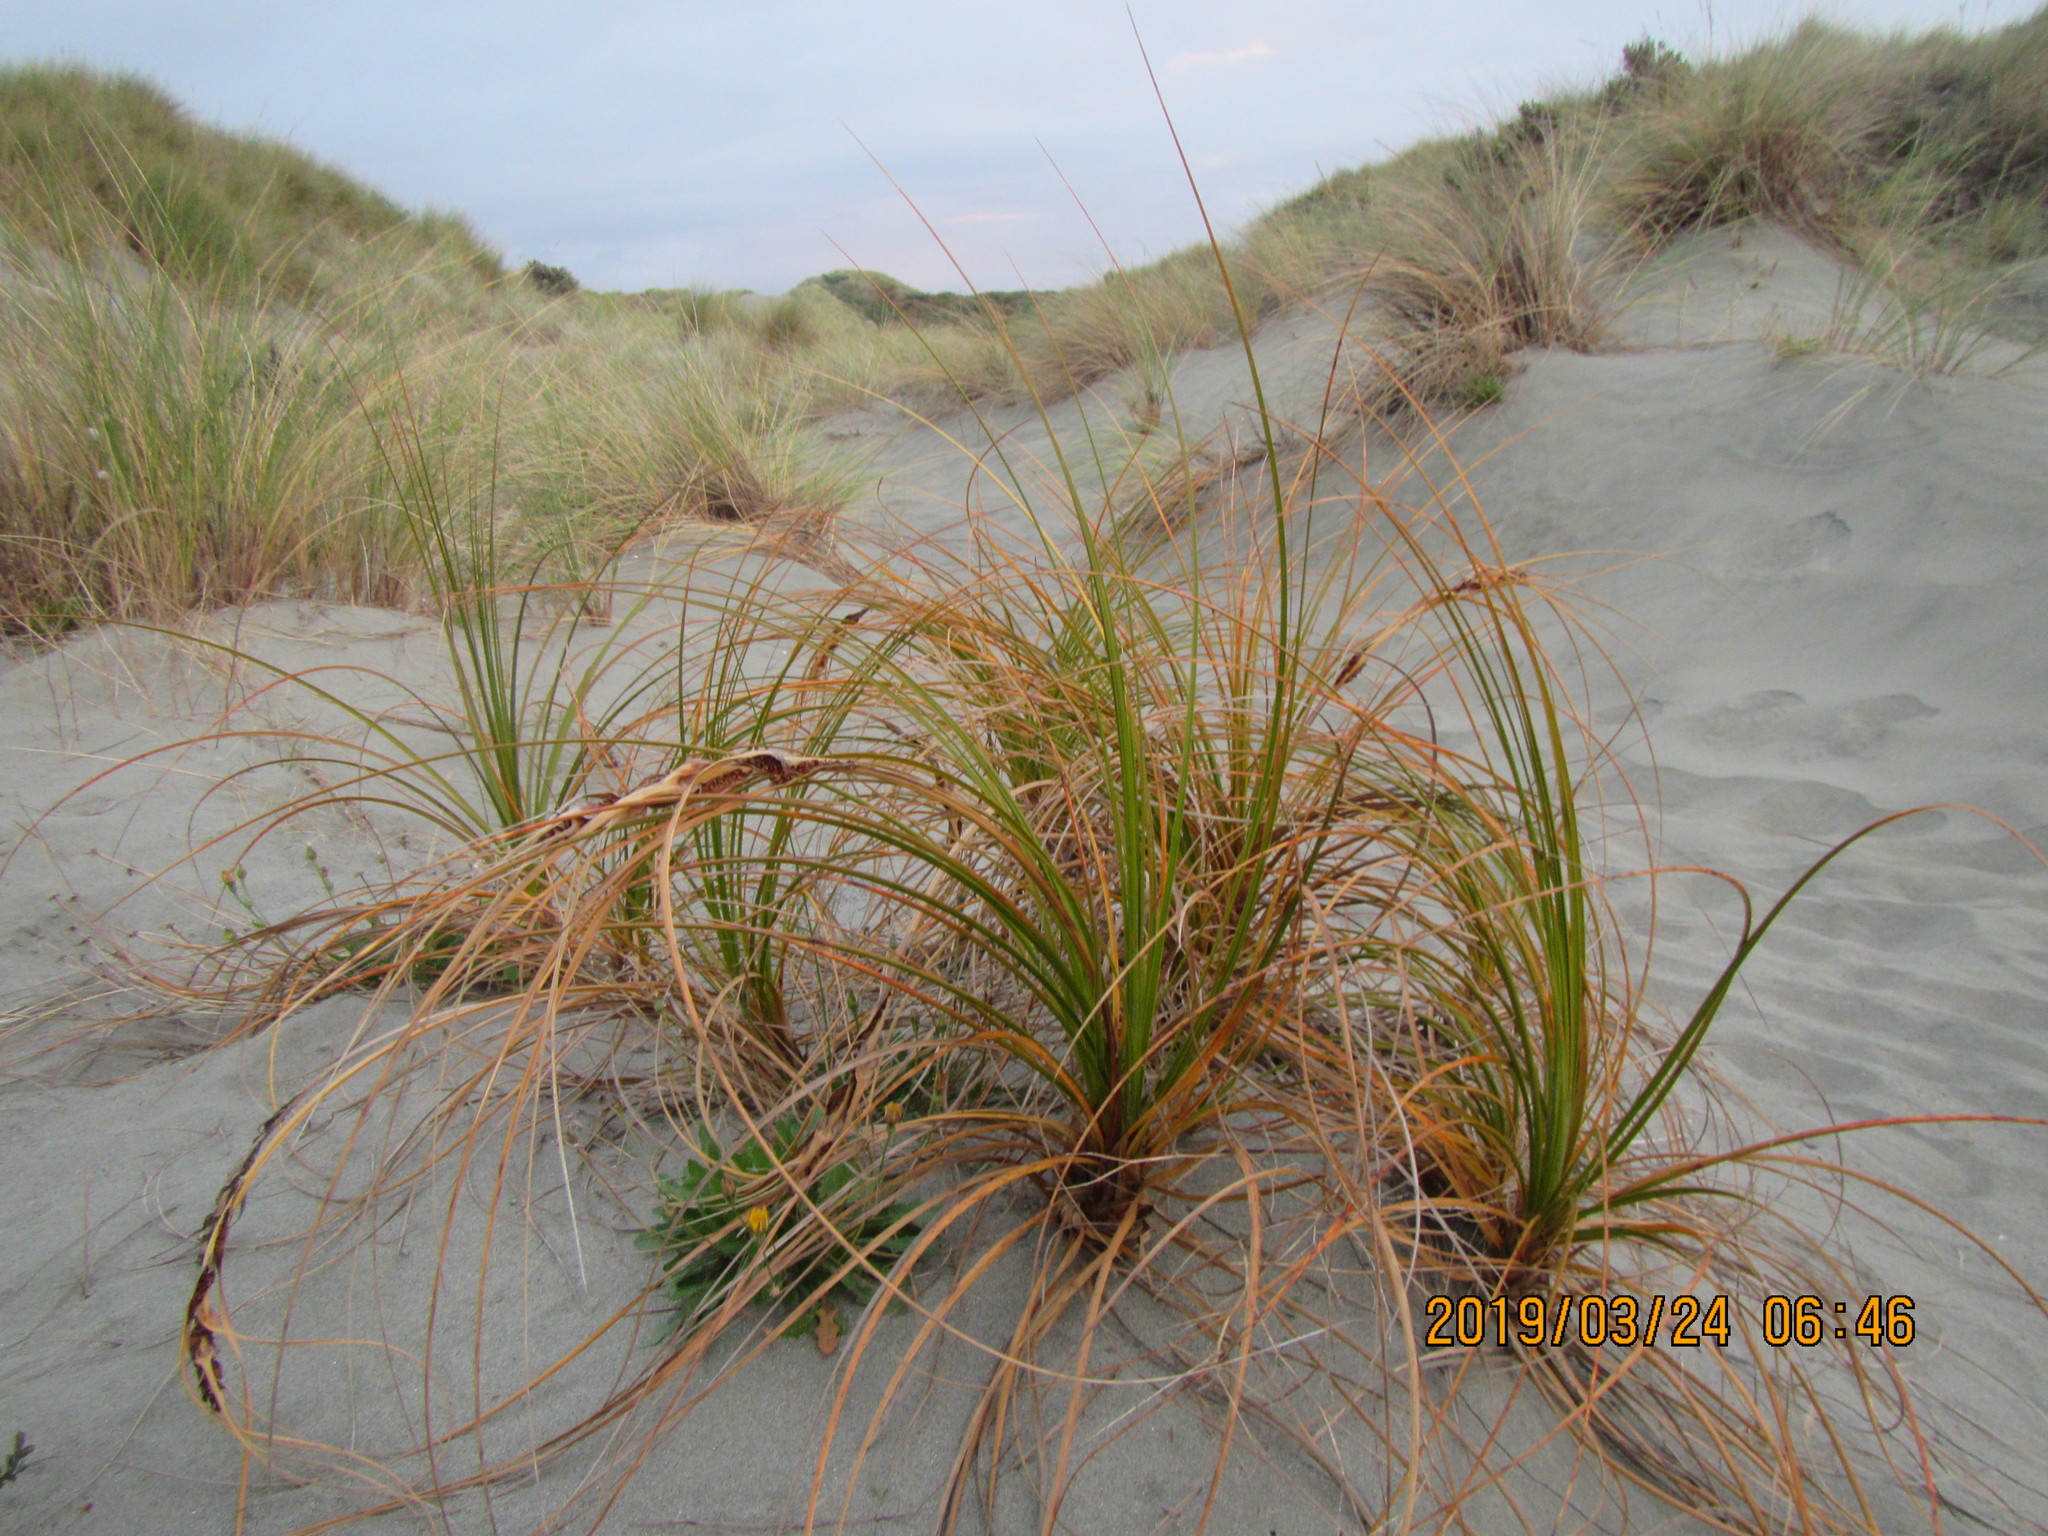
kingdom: Plantae
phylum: Tracheophyta
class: Liliopsida
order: Poales
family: Cyperaceae
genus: Ficinia
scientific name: Ficinia spiralis
